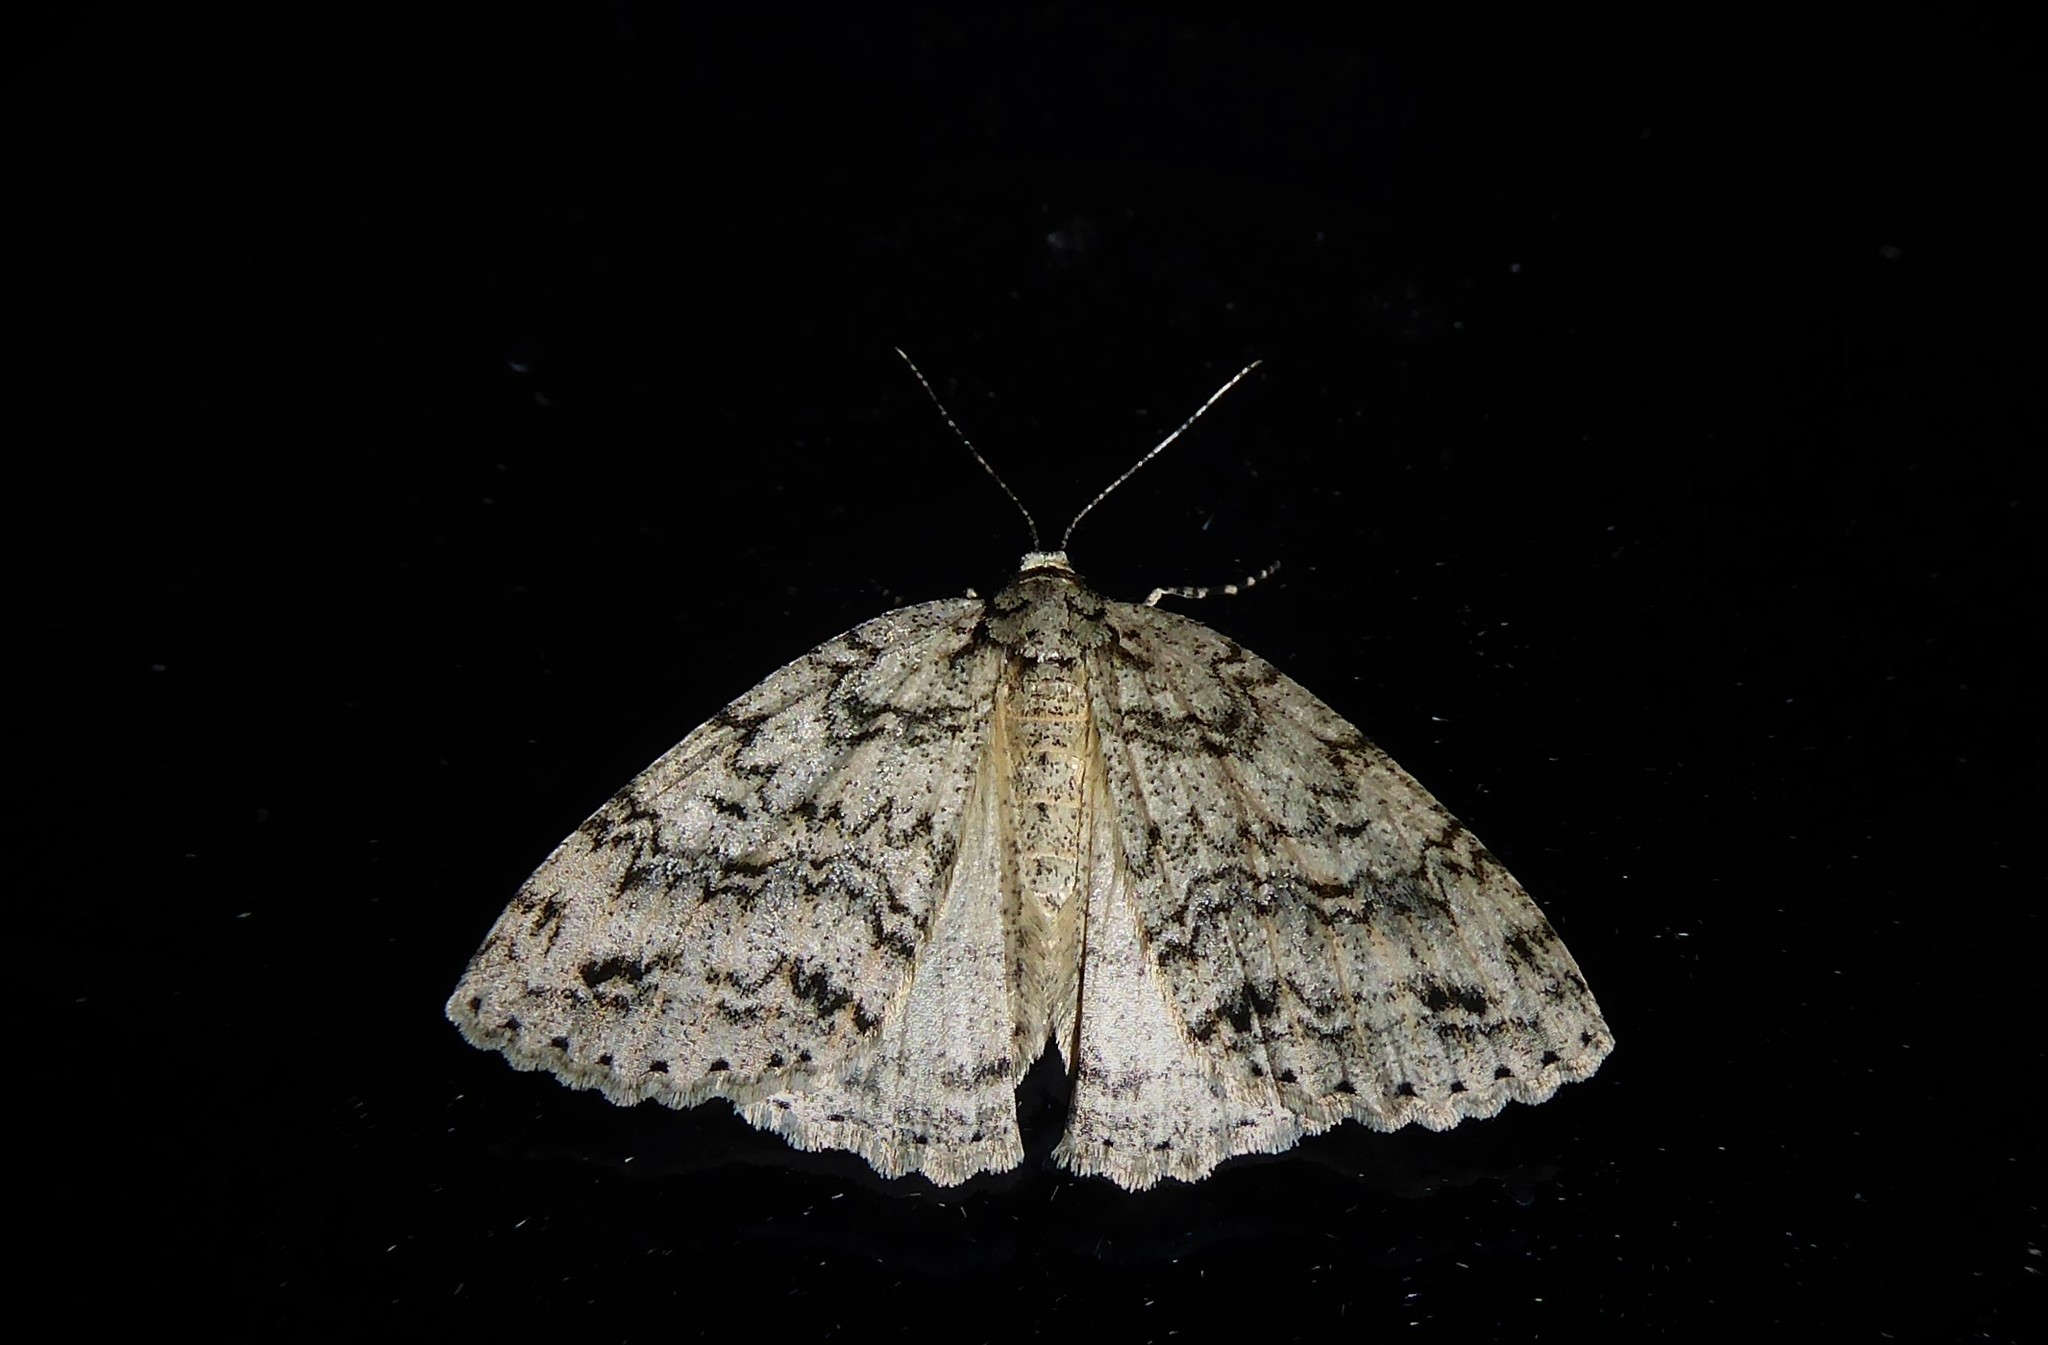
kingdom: Animalia
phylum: Arthropoda
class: Insecta
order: Lepidoptera
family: Geometridae
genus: Pseudocoremia
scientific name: Pseudocoremia rudisata
